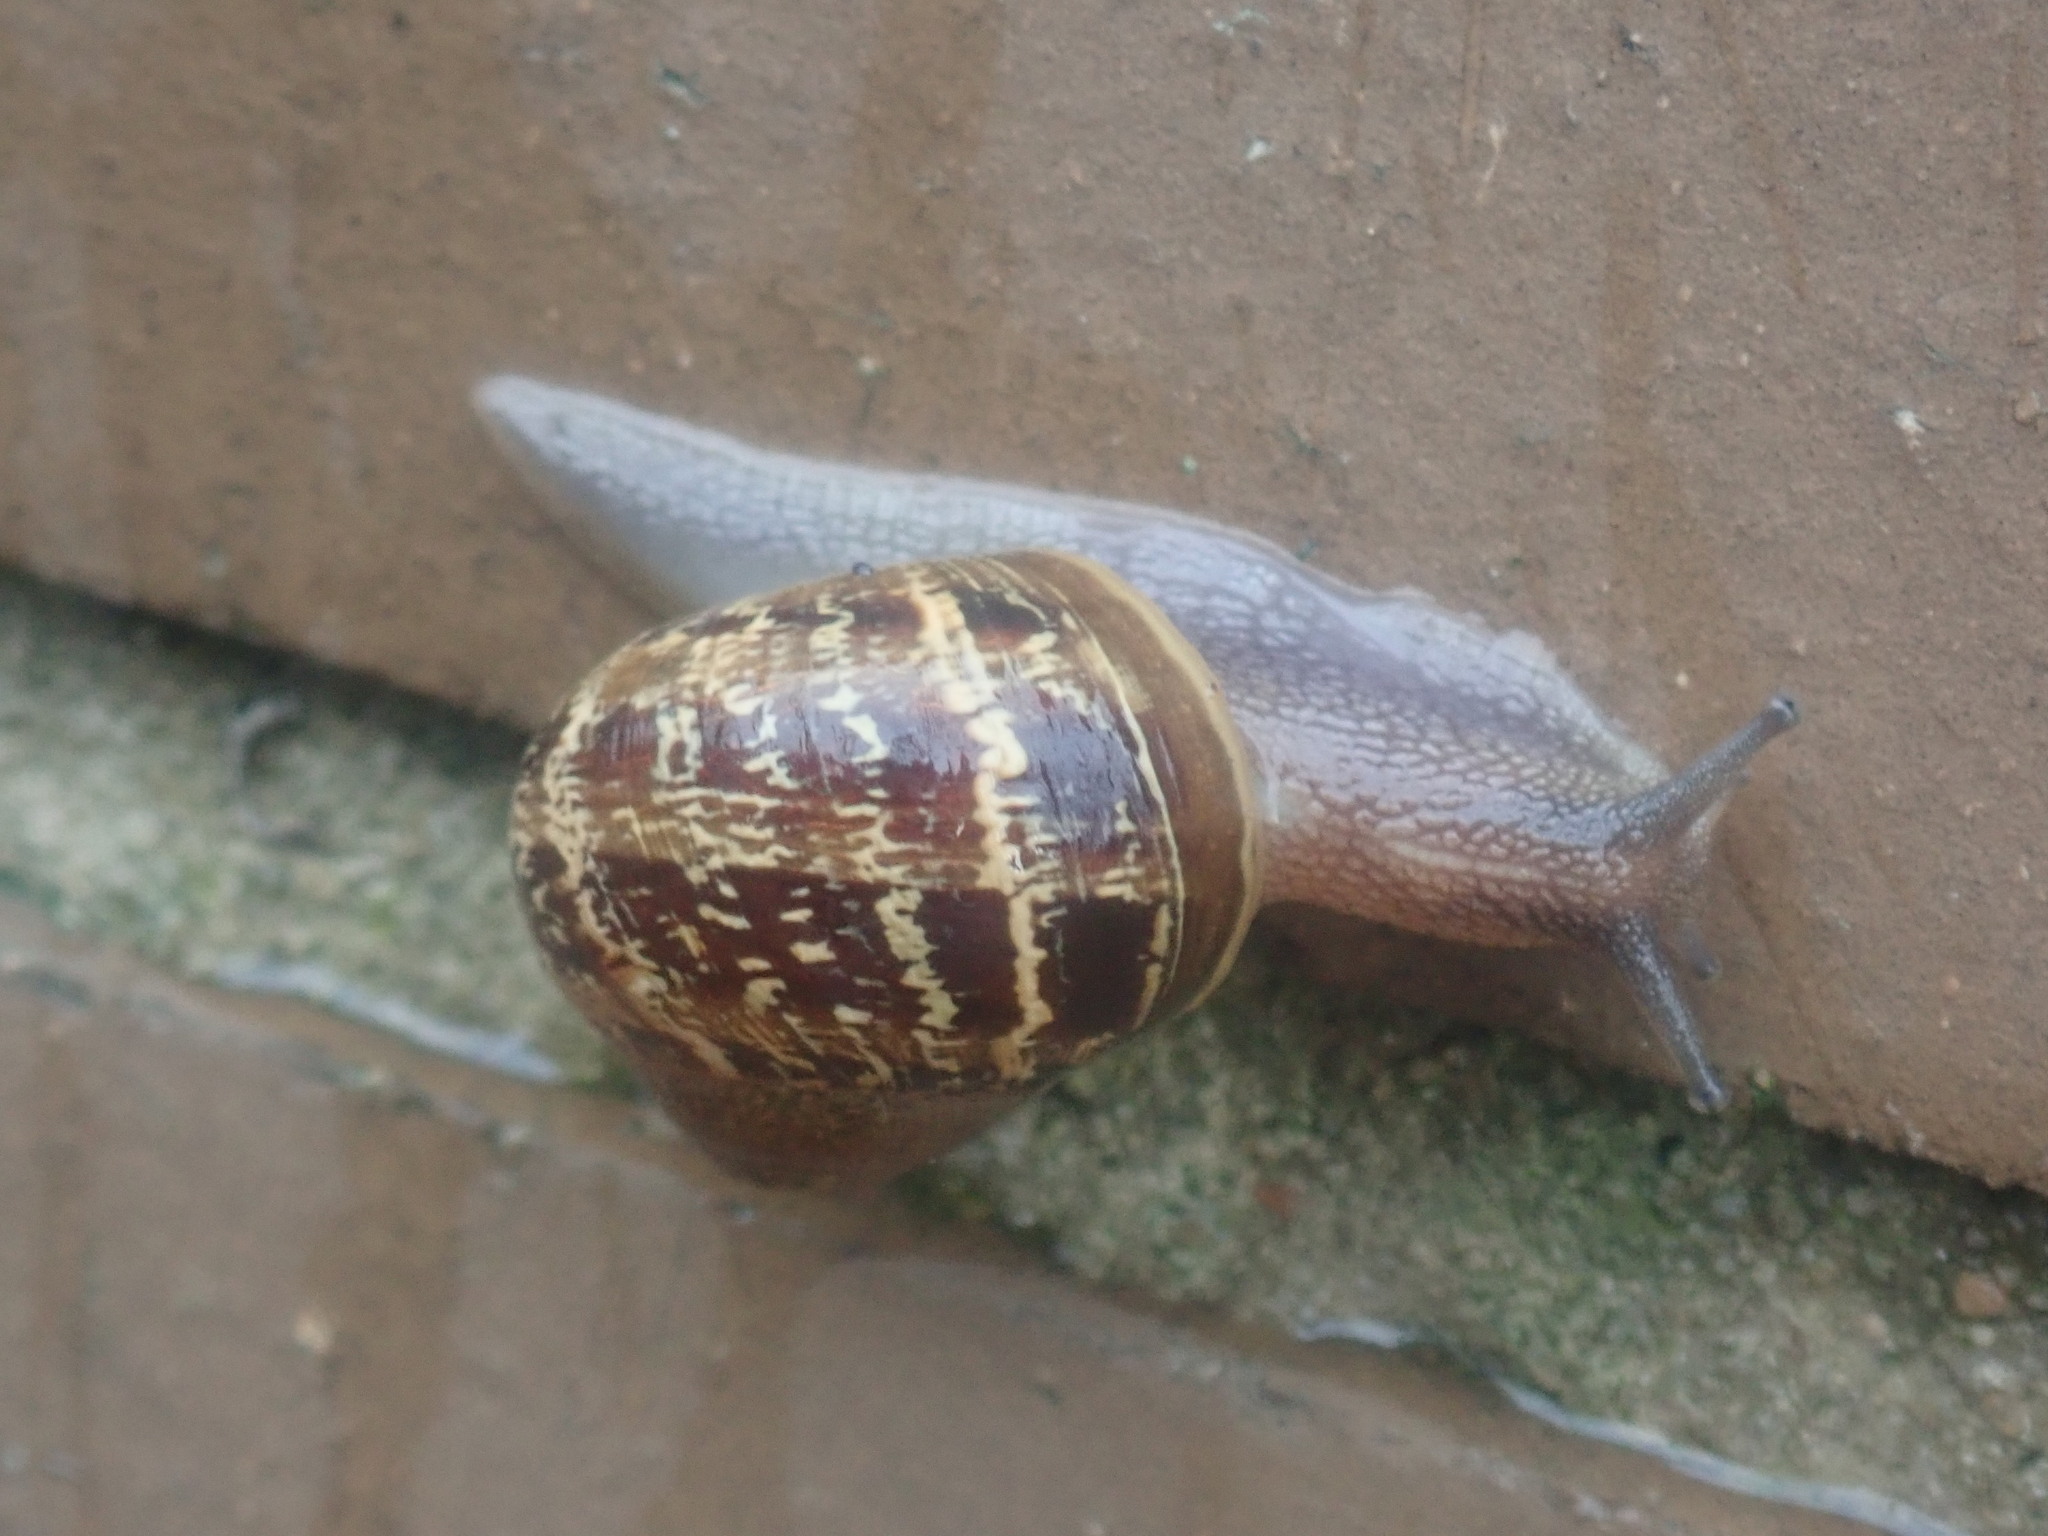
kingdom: Animalia
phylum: Mollusca
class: Gastropoda
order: Stylommatophora
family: Helicidae
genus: Cornu
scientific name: Cornu aspersum
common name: Brown garden snail
